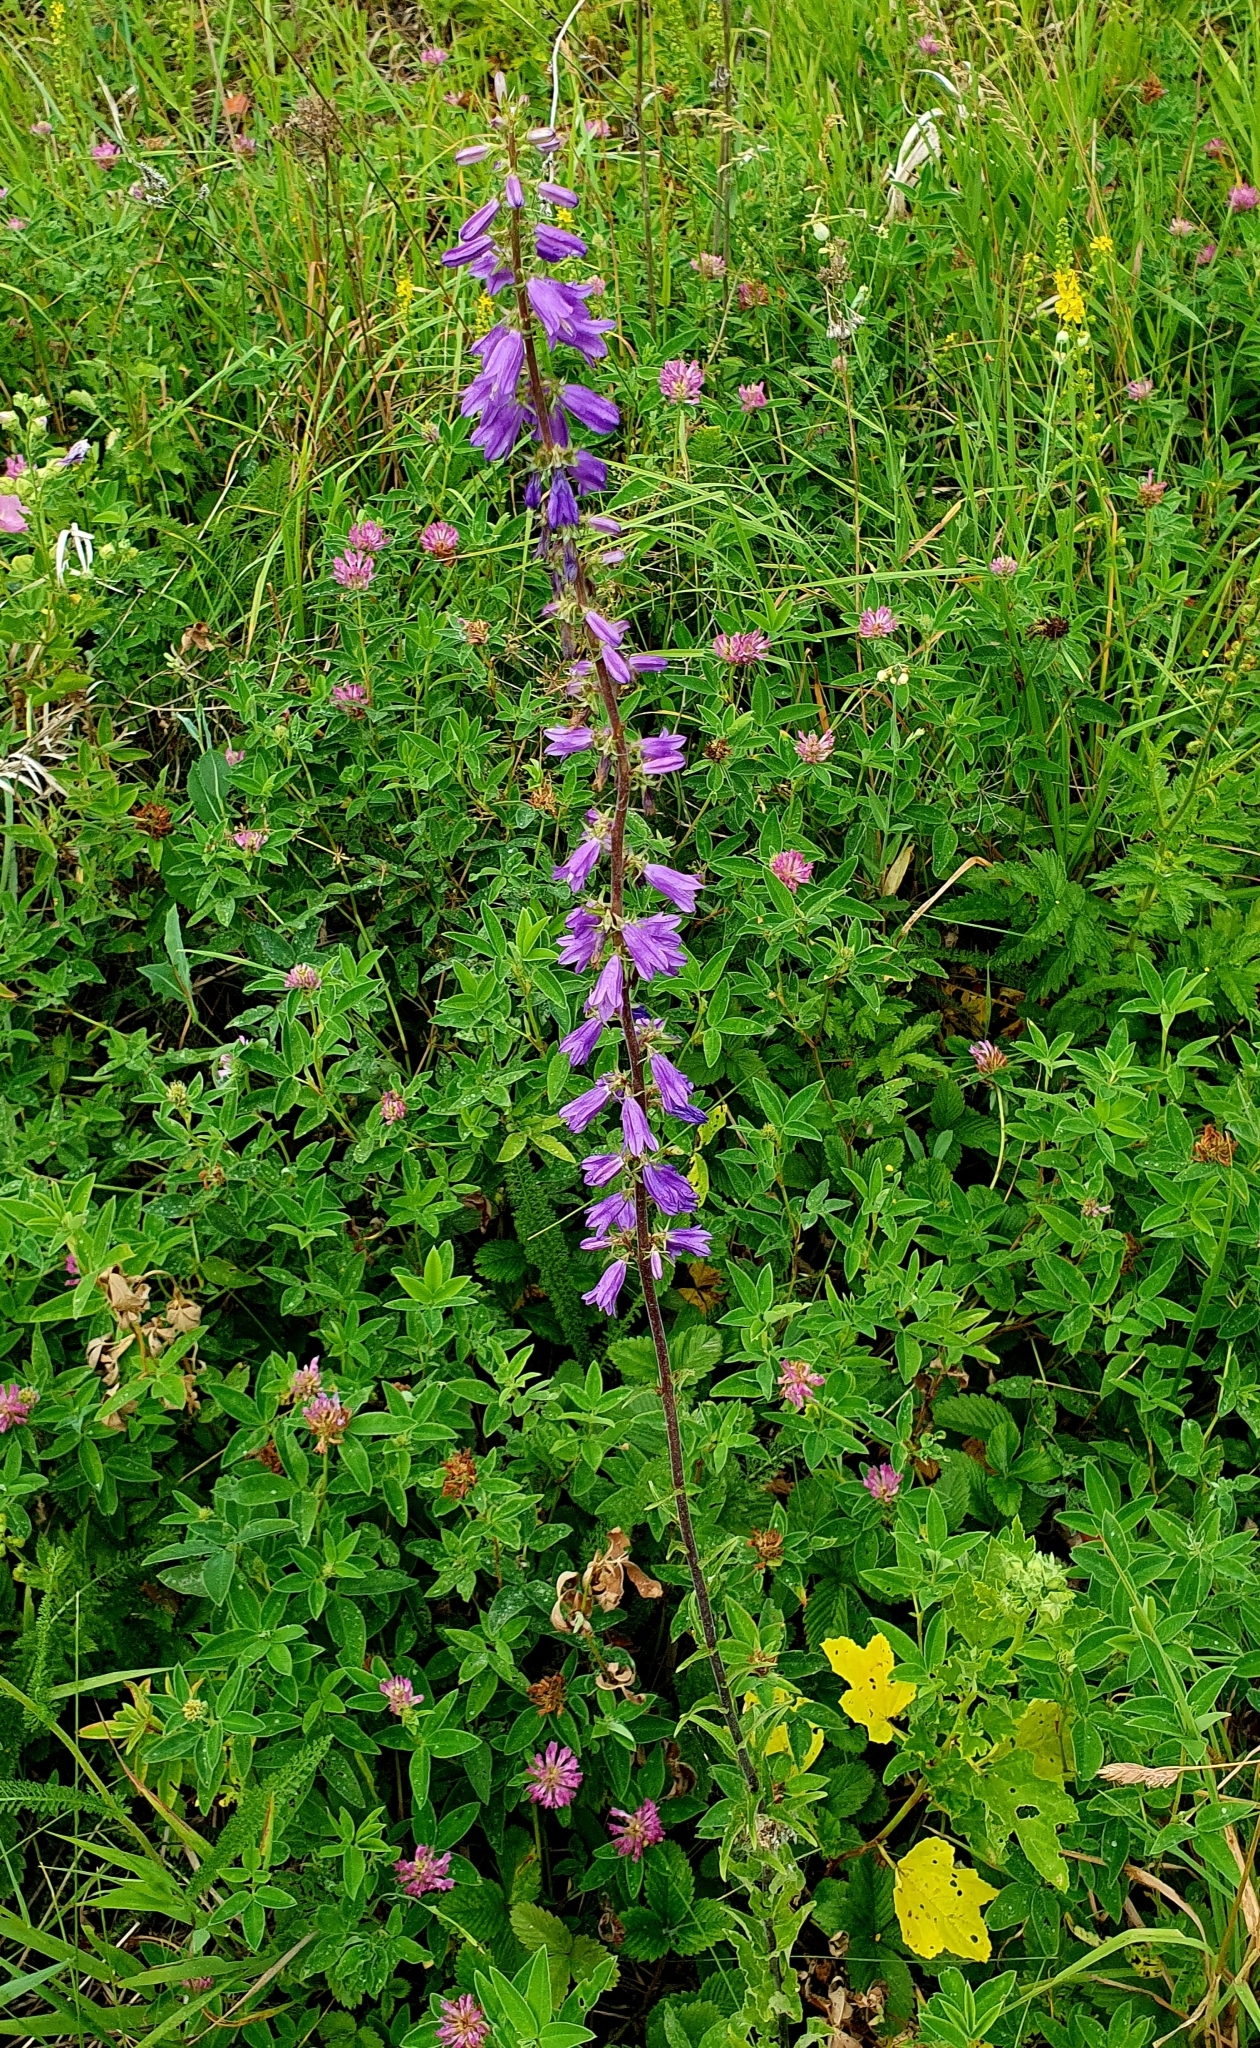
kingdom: Plantae
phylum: Tracheophyta
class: Magnoliopsida
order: Asterales
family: Campanulaceae
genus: Campanula
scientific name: Campanula bononiensis
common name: Pale bellflower
